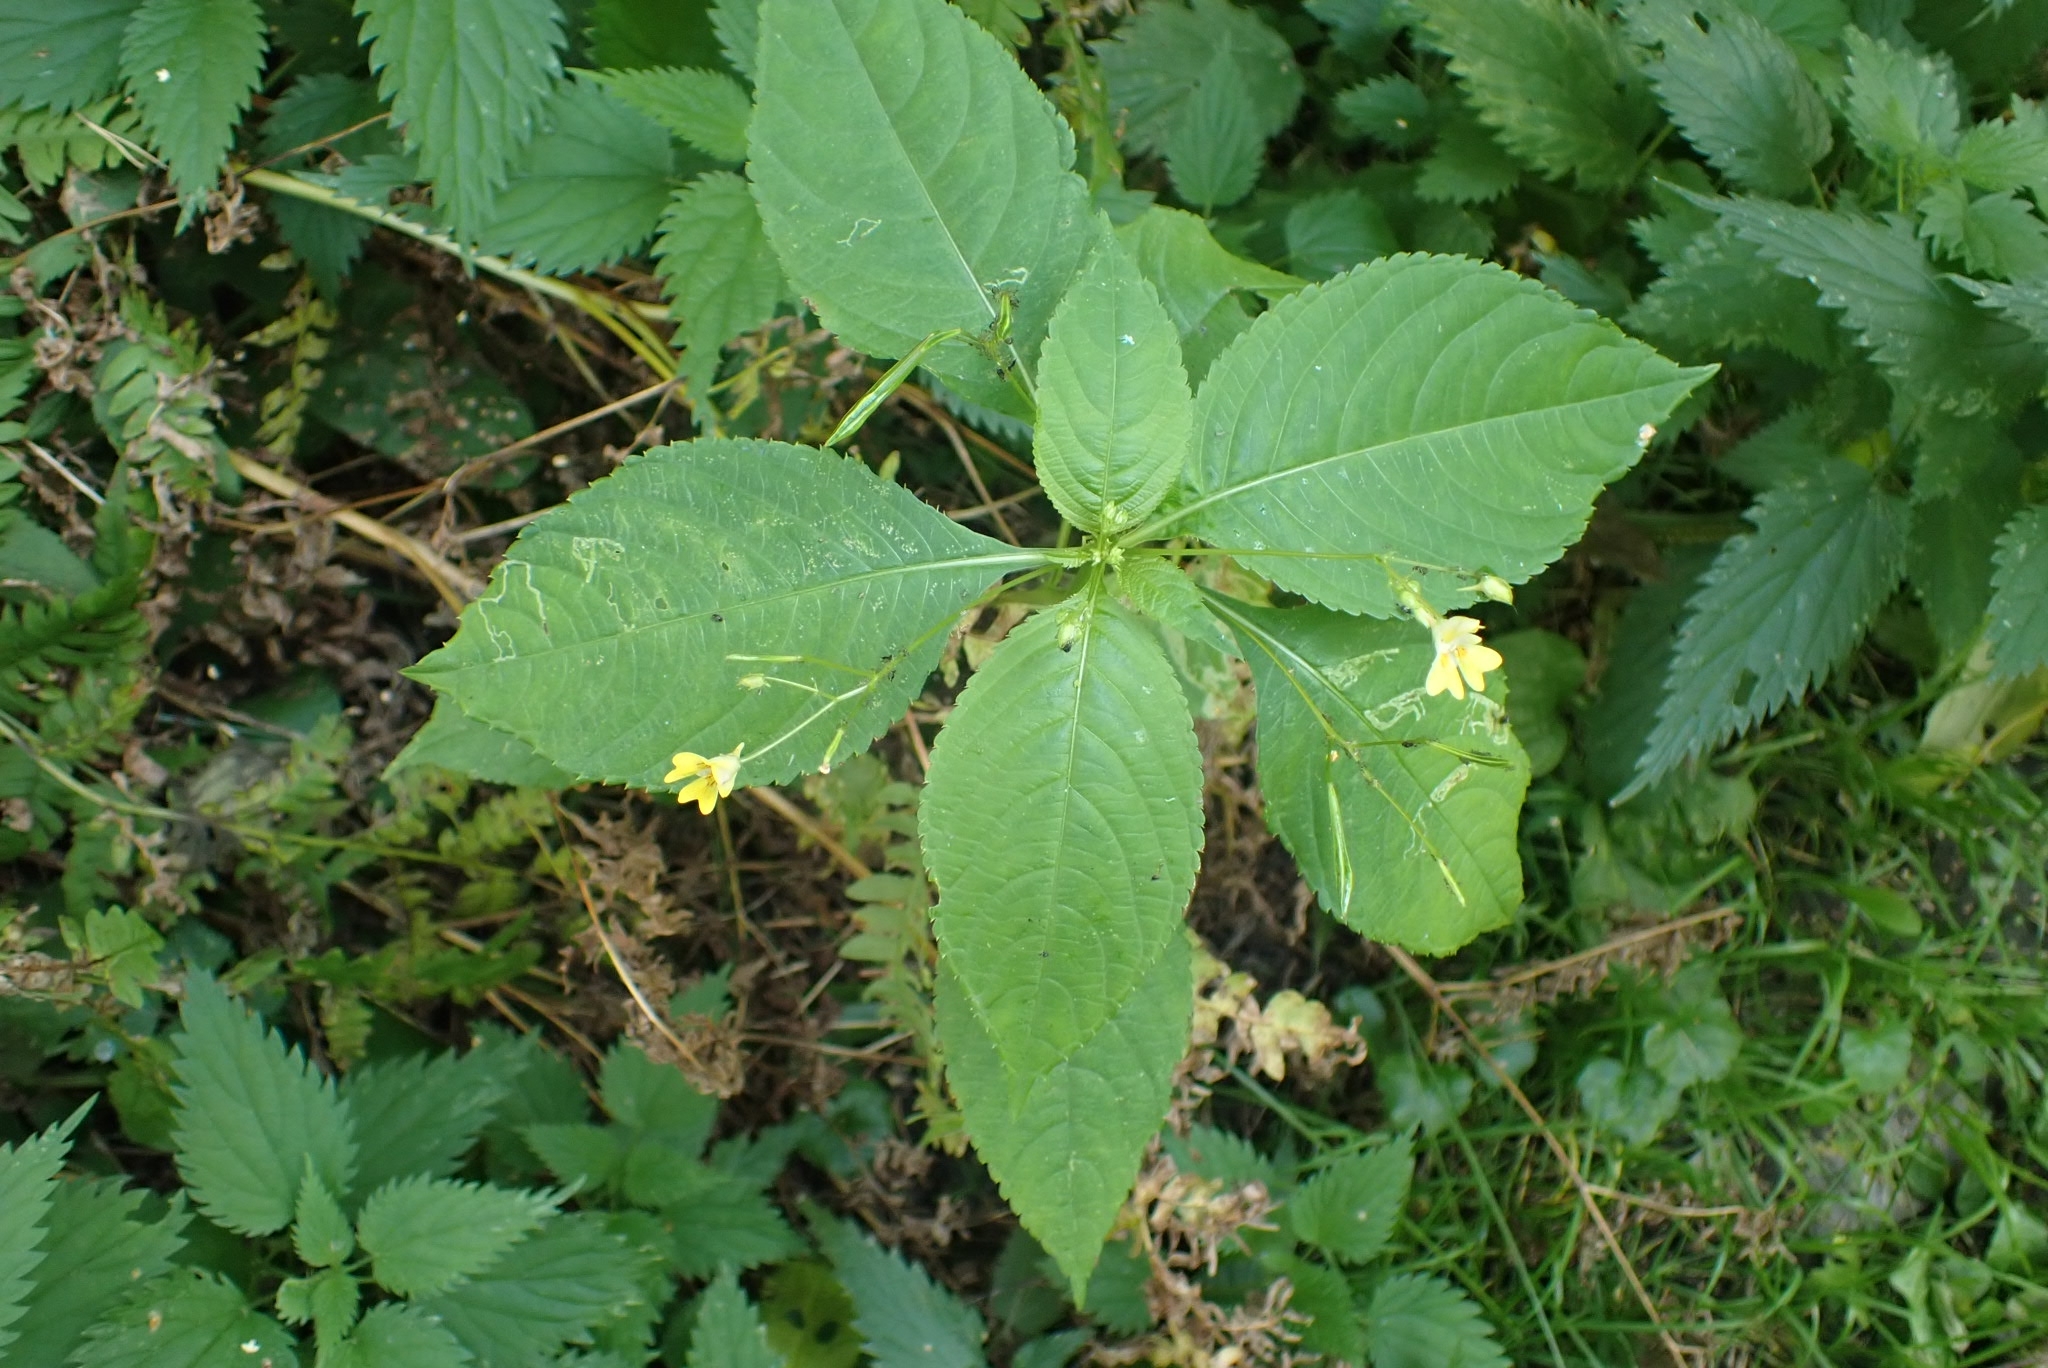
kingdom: Plantae
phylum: Tracheophyta
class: Magnoliopsida
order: Ericales
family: Balsaminaceae
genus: Impatiens
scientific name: Impatiens parviflora
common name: Small balsam
